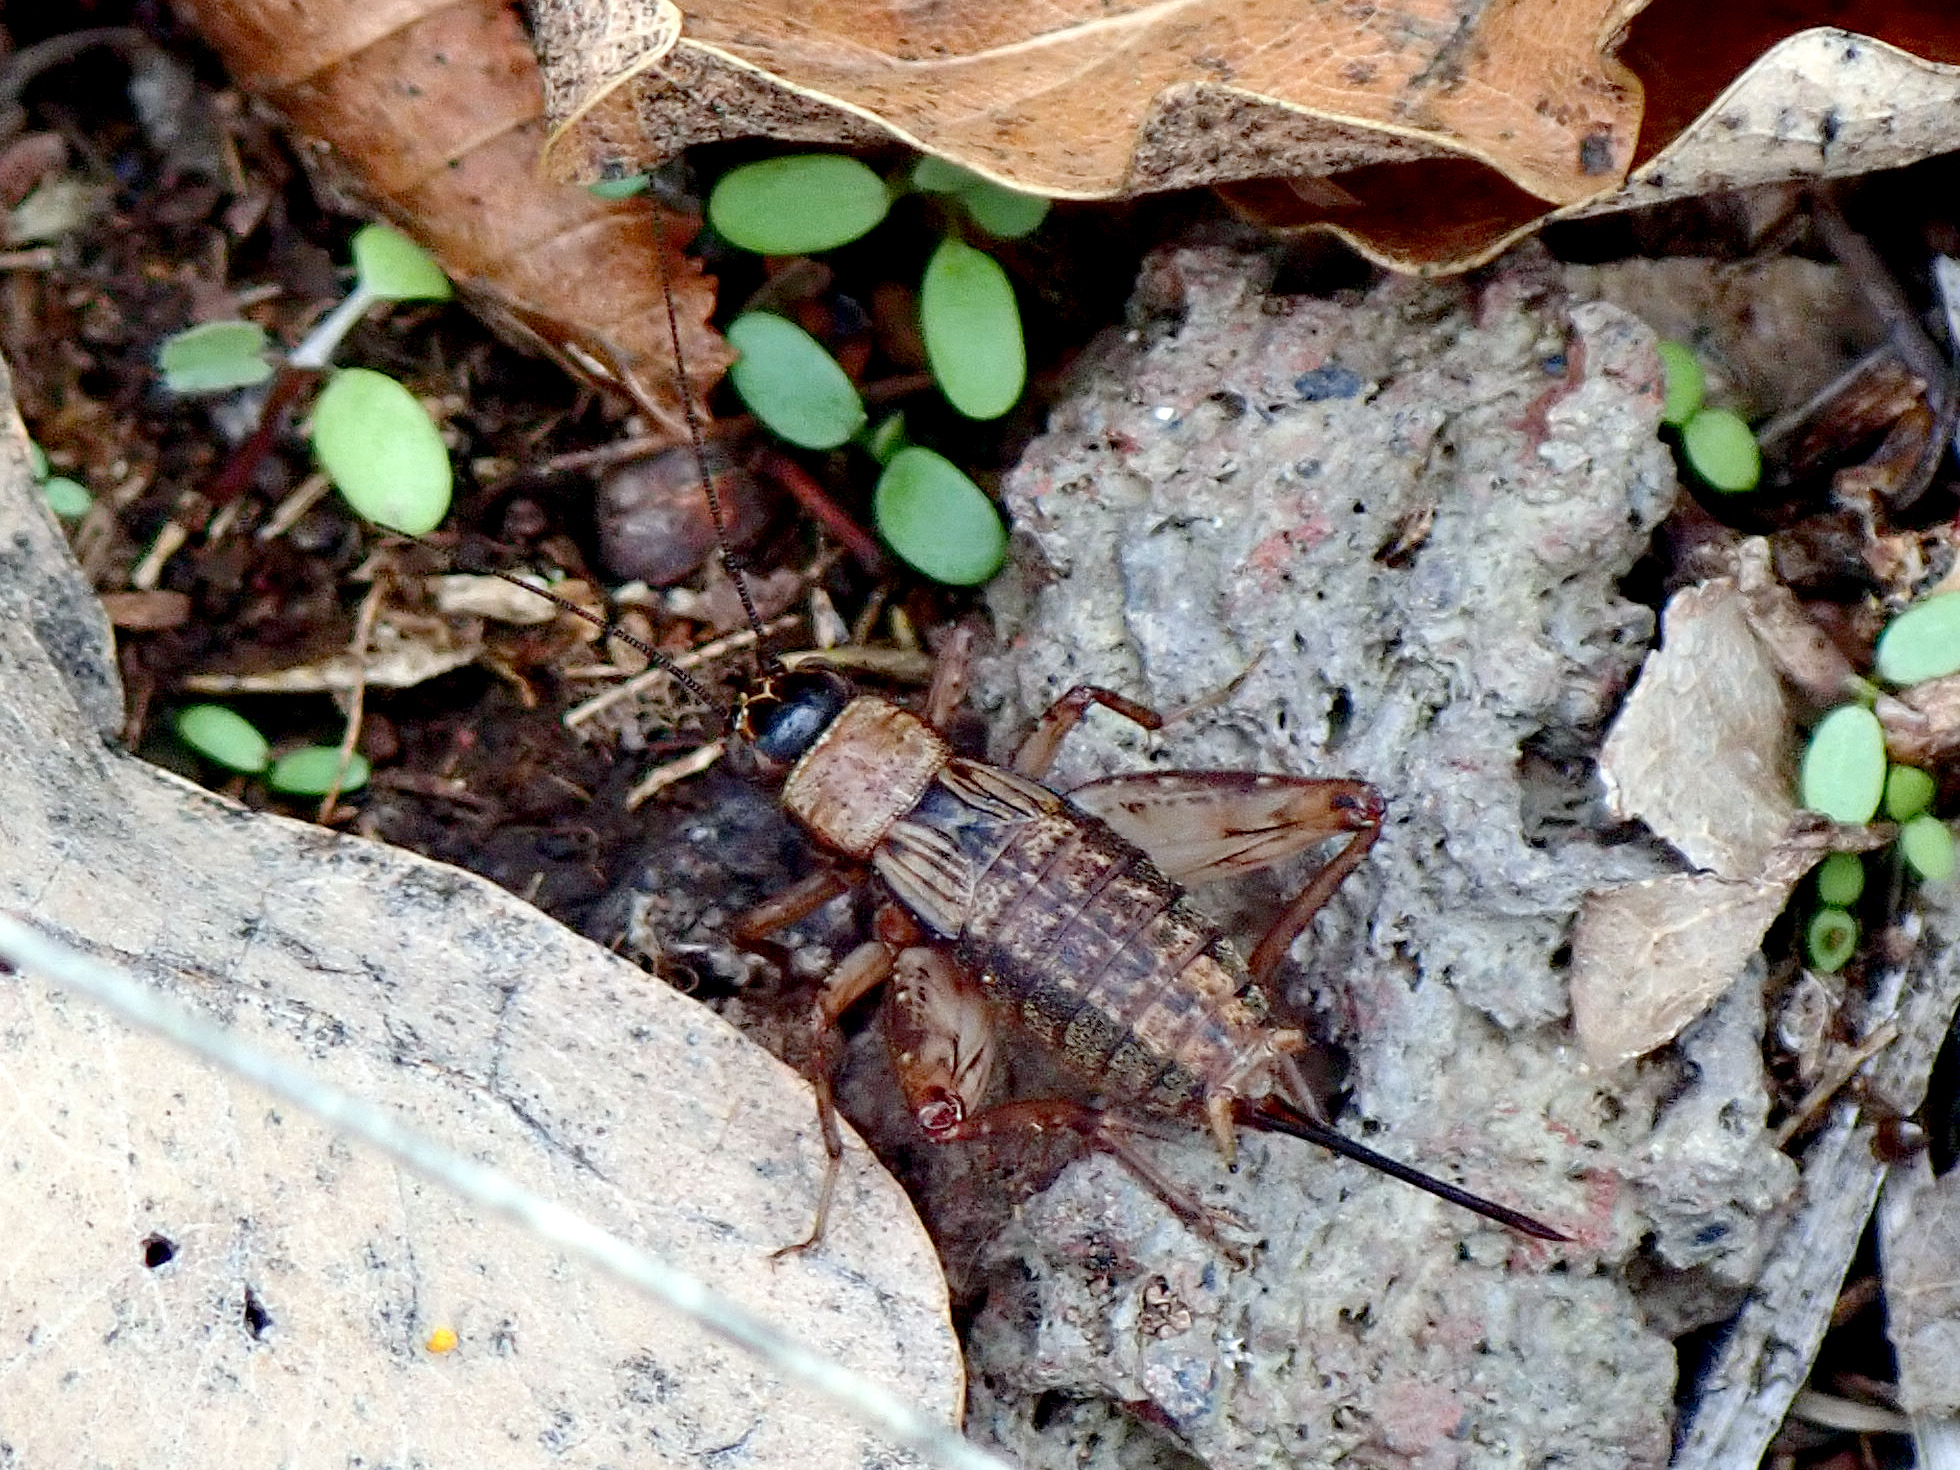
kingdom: Animalia
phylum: Arthropoda
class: Insecta
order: Orthoptera
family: Trigonidiidae
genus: Nemobius
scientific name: Nemobius sylvestris
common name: Wood-cricket
